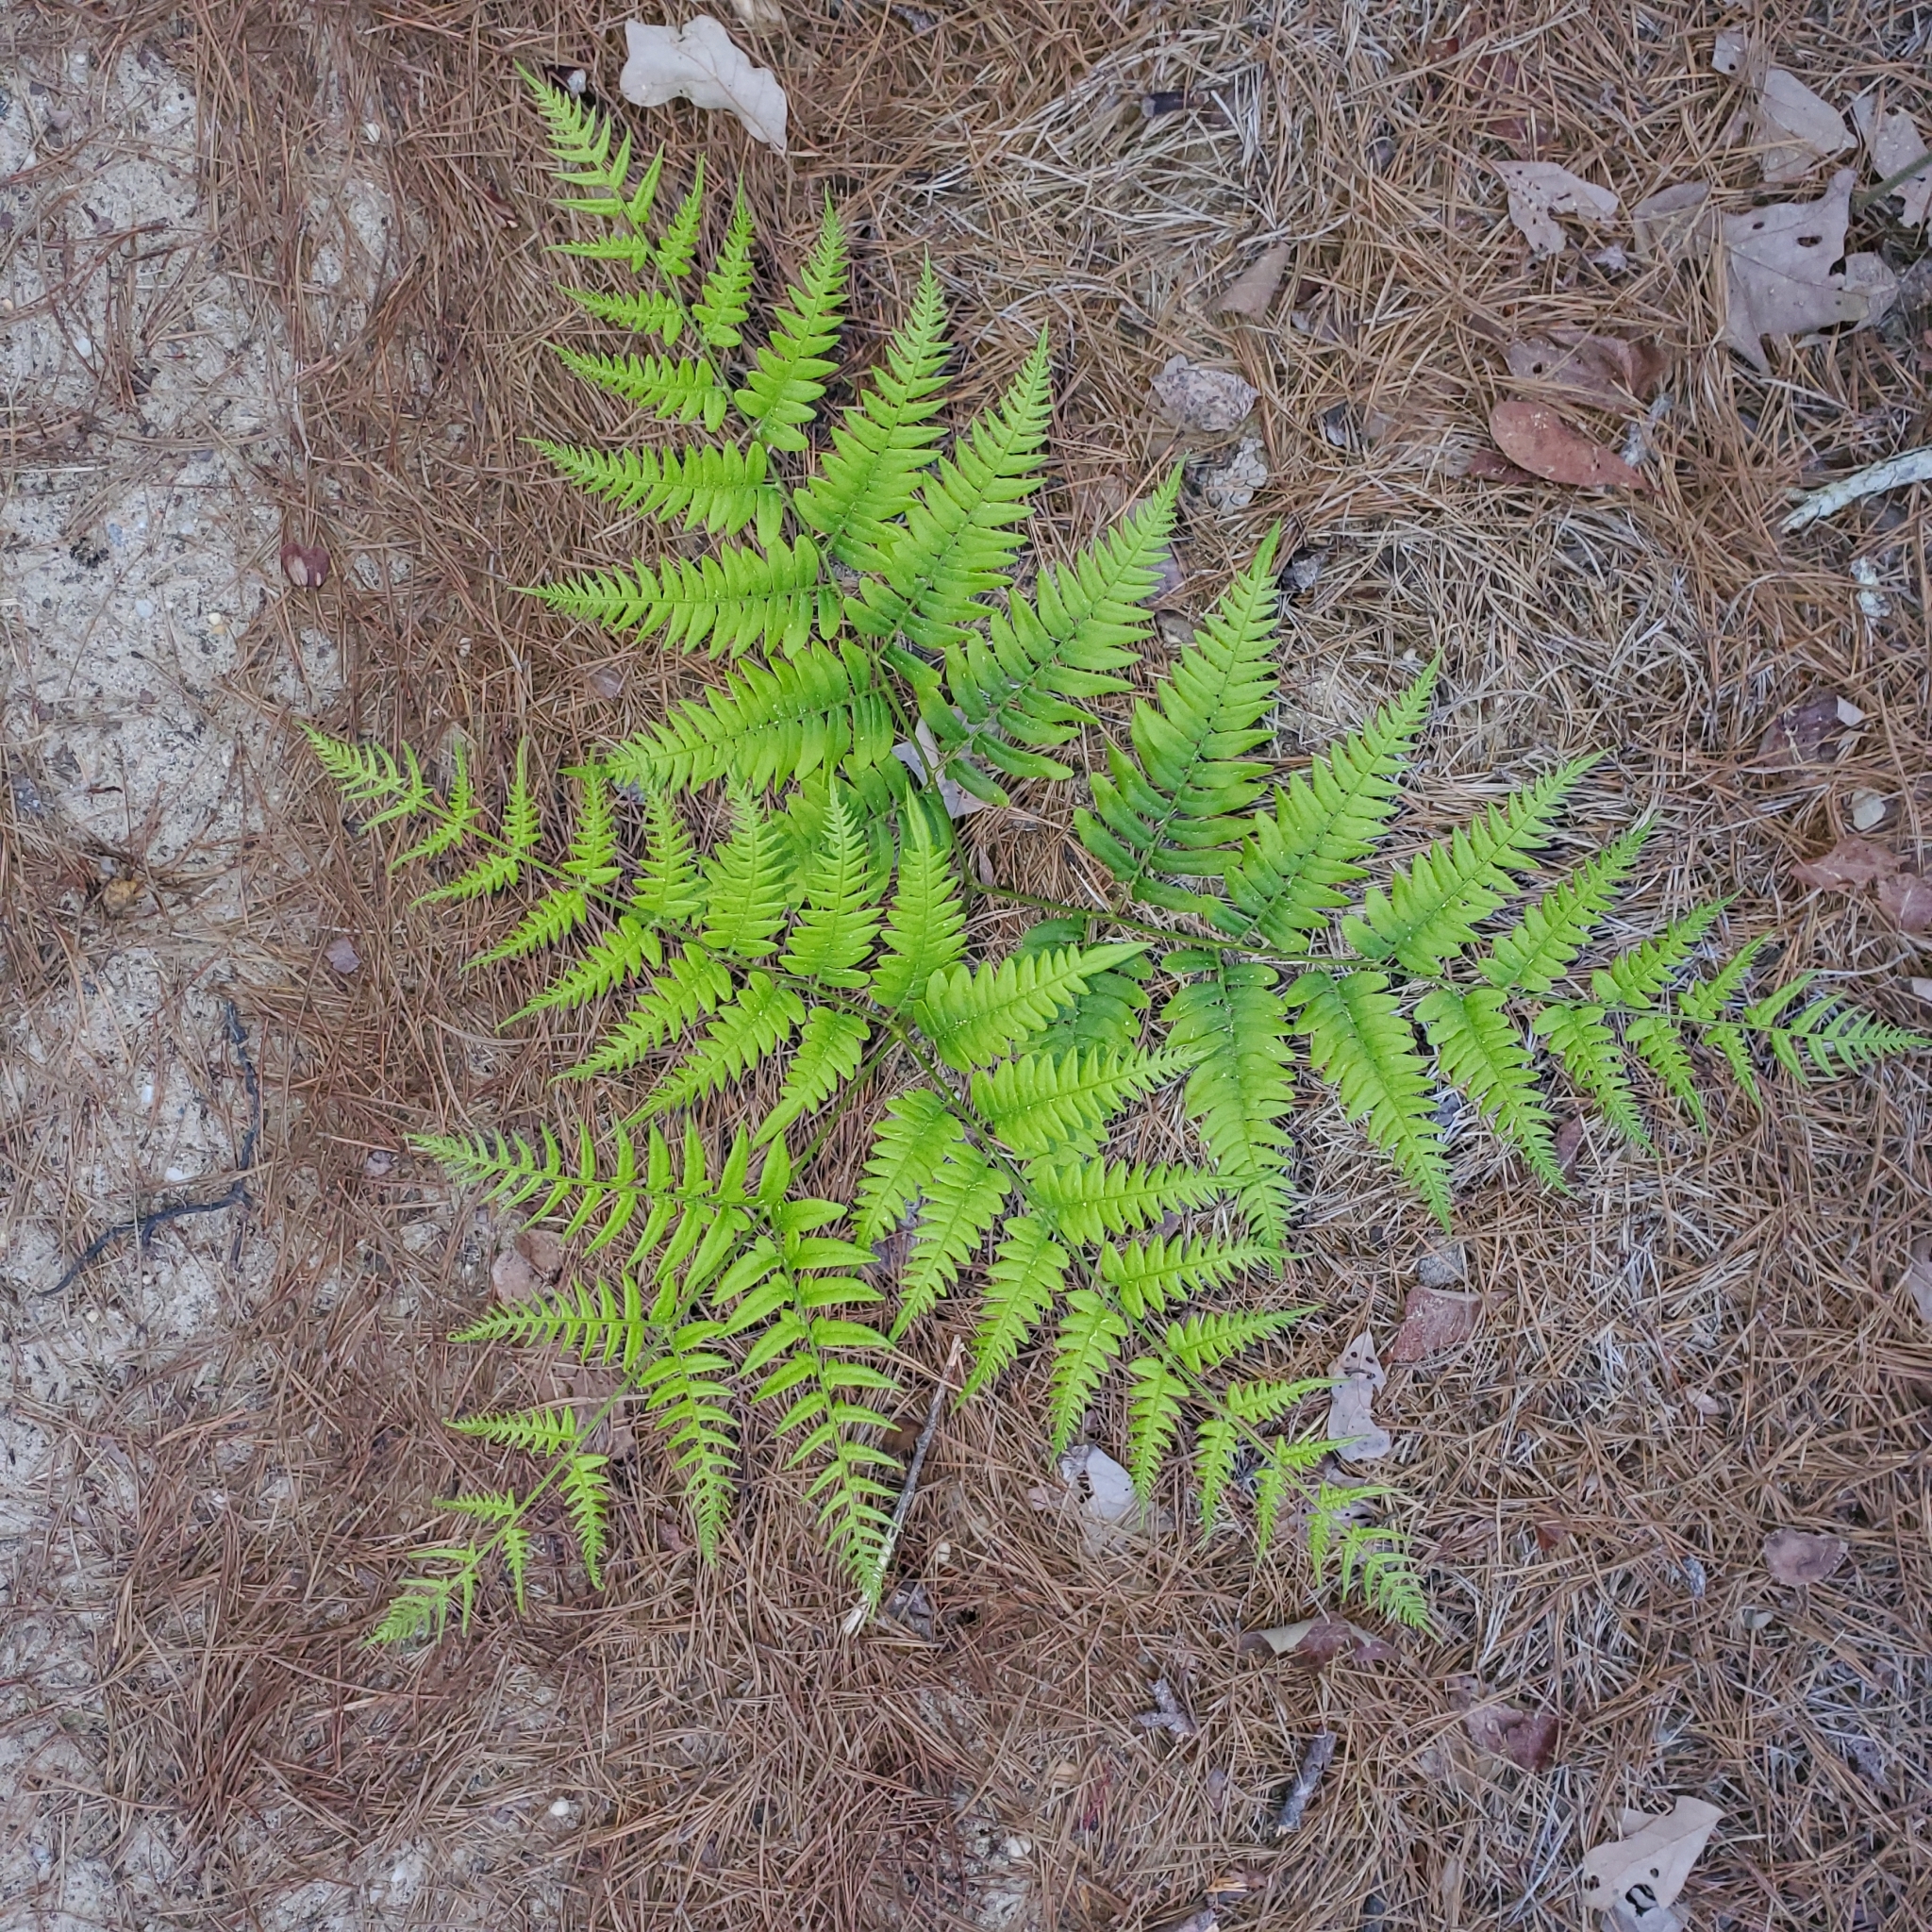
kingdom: Plantae
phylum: Tracheophyta
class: Polypodiopsida
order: Polypodiales
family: Dennstaedtiaceae
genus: Pteridium
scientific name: Pteridium aquilinum
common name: Bracken
